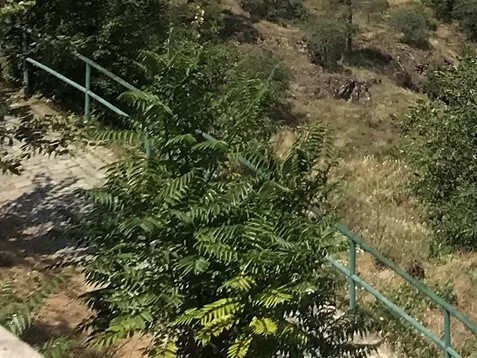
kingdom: Plantae
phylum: Tracheophyta
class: Magnoliopsida
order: Sapindales
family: Simaroubaceae
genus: Ailanthus
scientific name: Ailanthus altissima
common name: Tree-of-heaven
